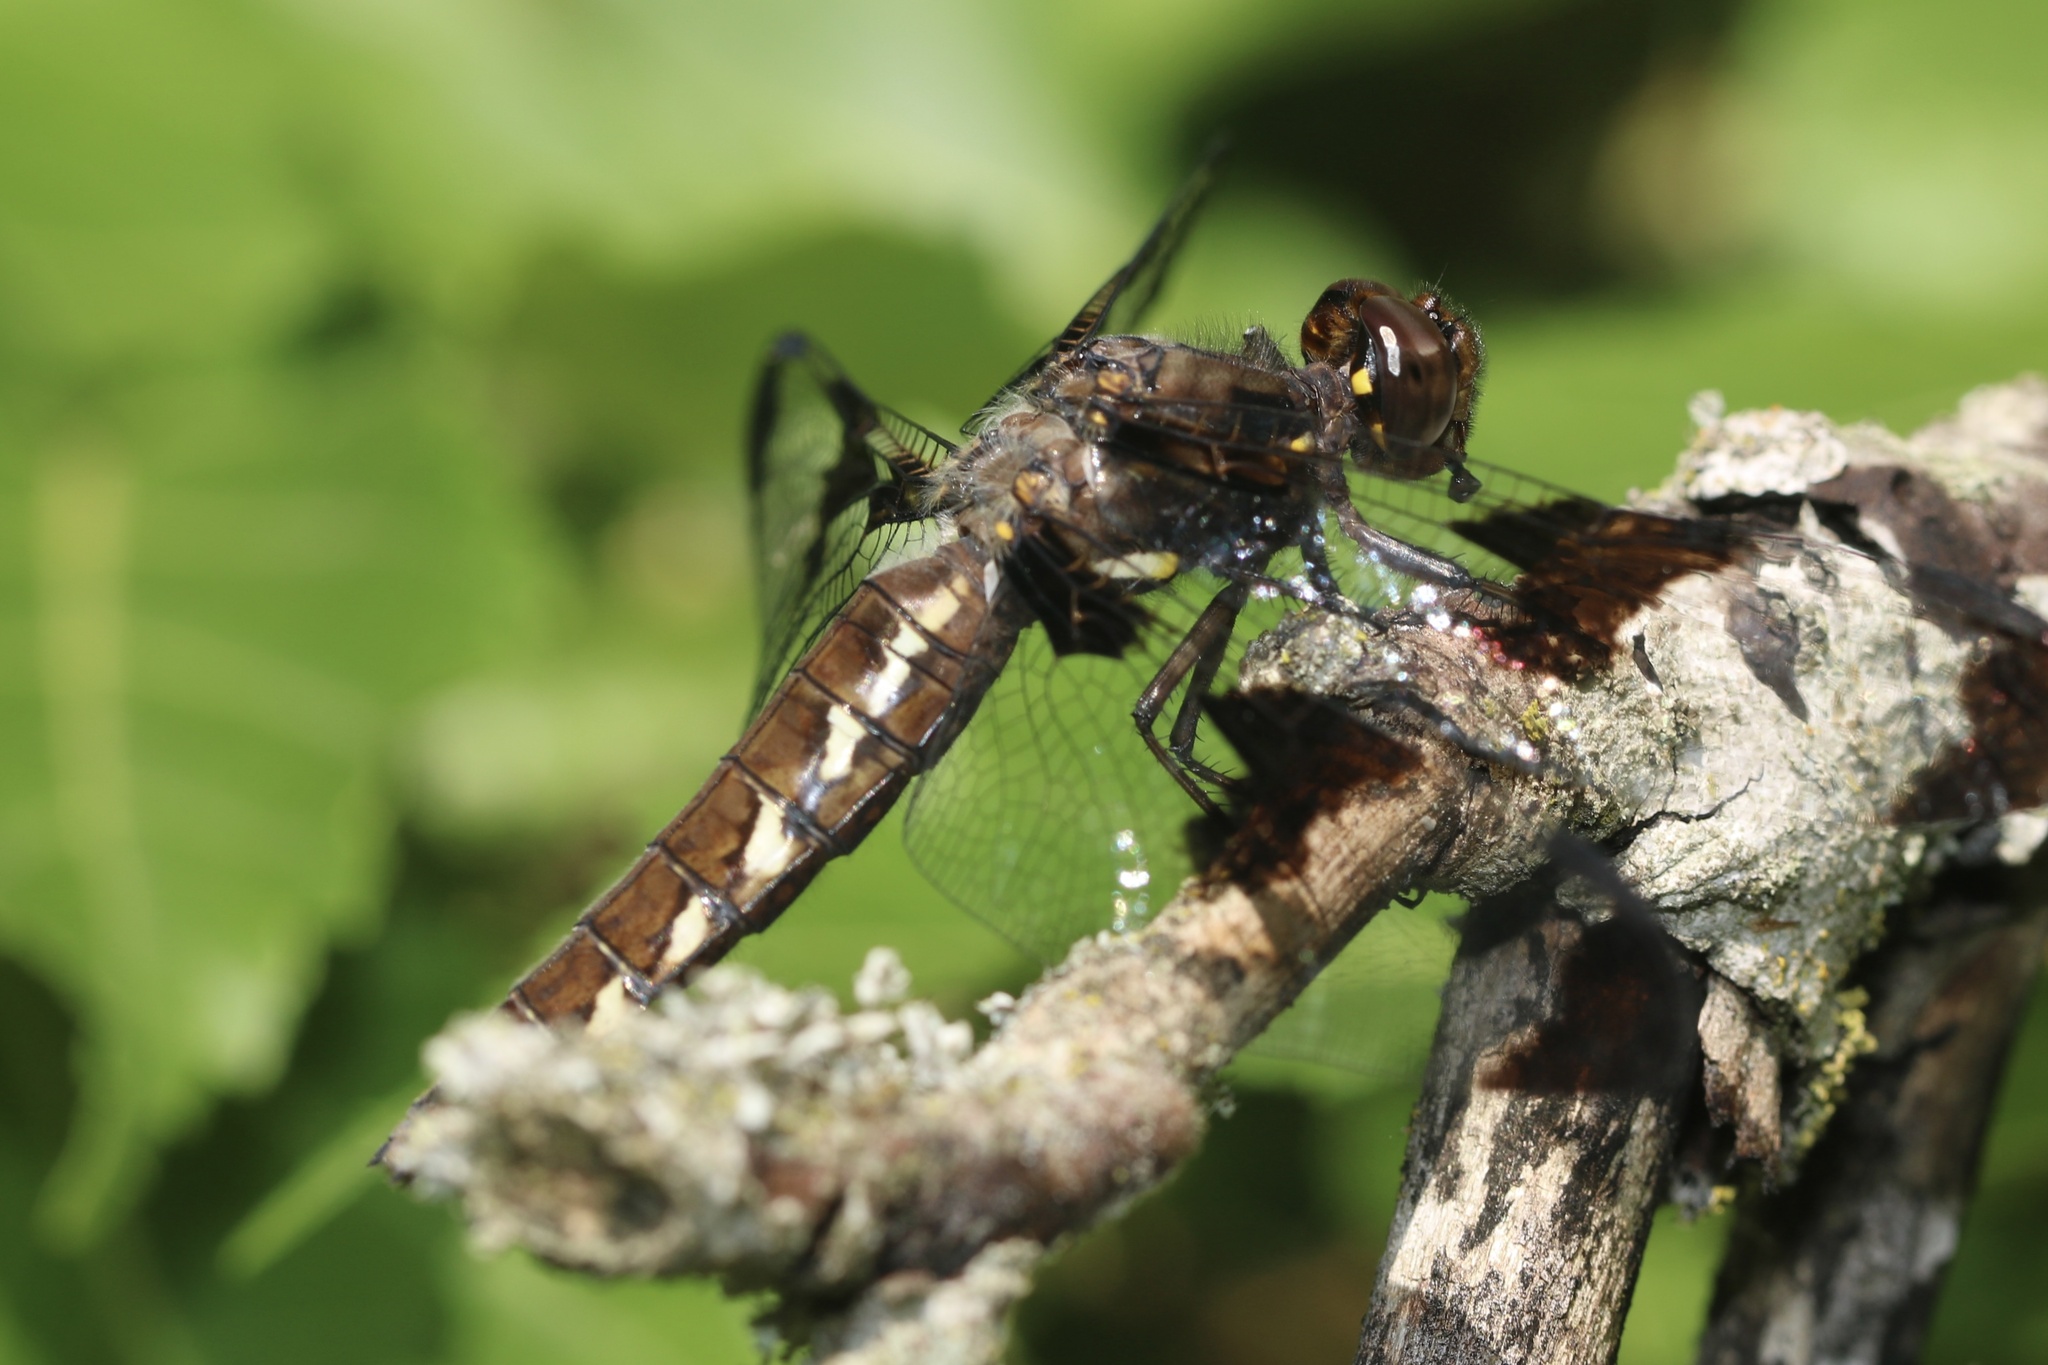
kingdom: Animalia
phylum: Arthropoda
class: Insecta
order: Odonata
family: Libellulidae
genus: Plathemis
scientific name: Plathemis lydia
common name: Common whitetail
